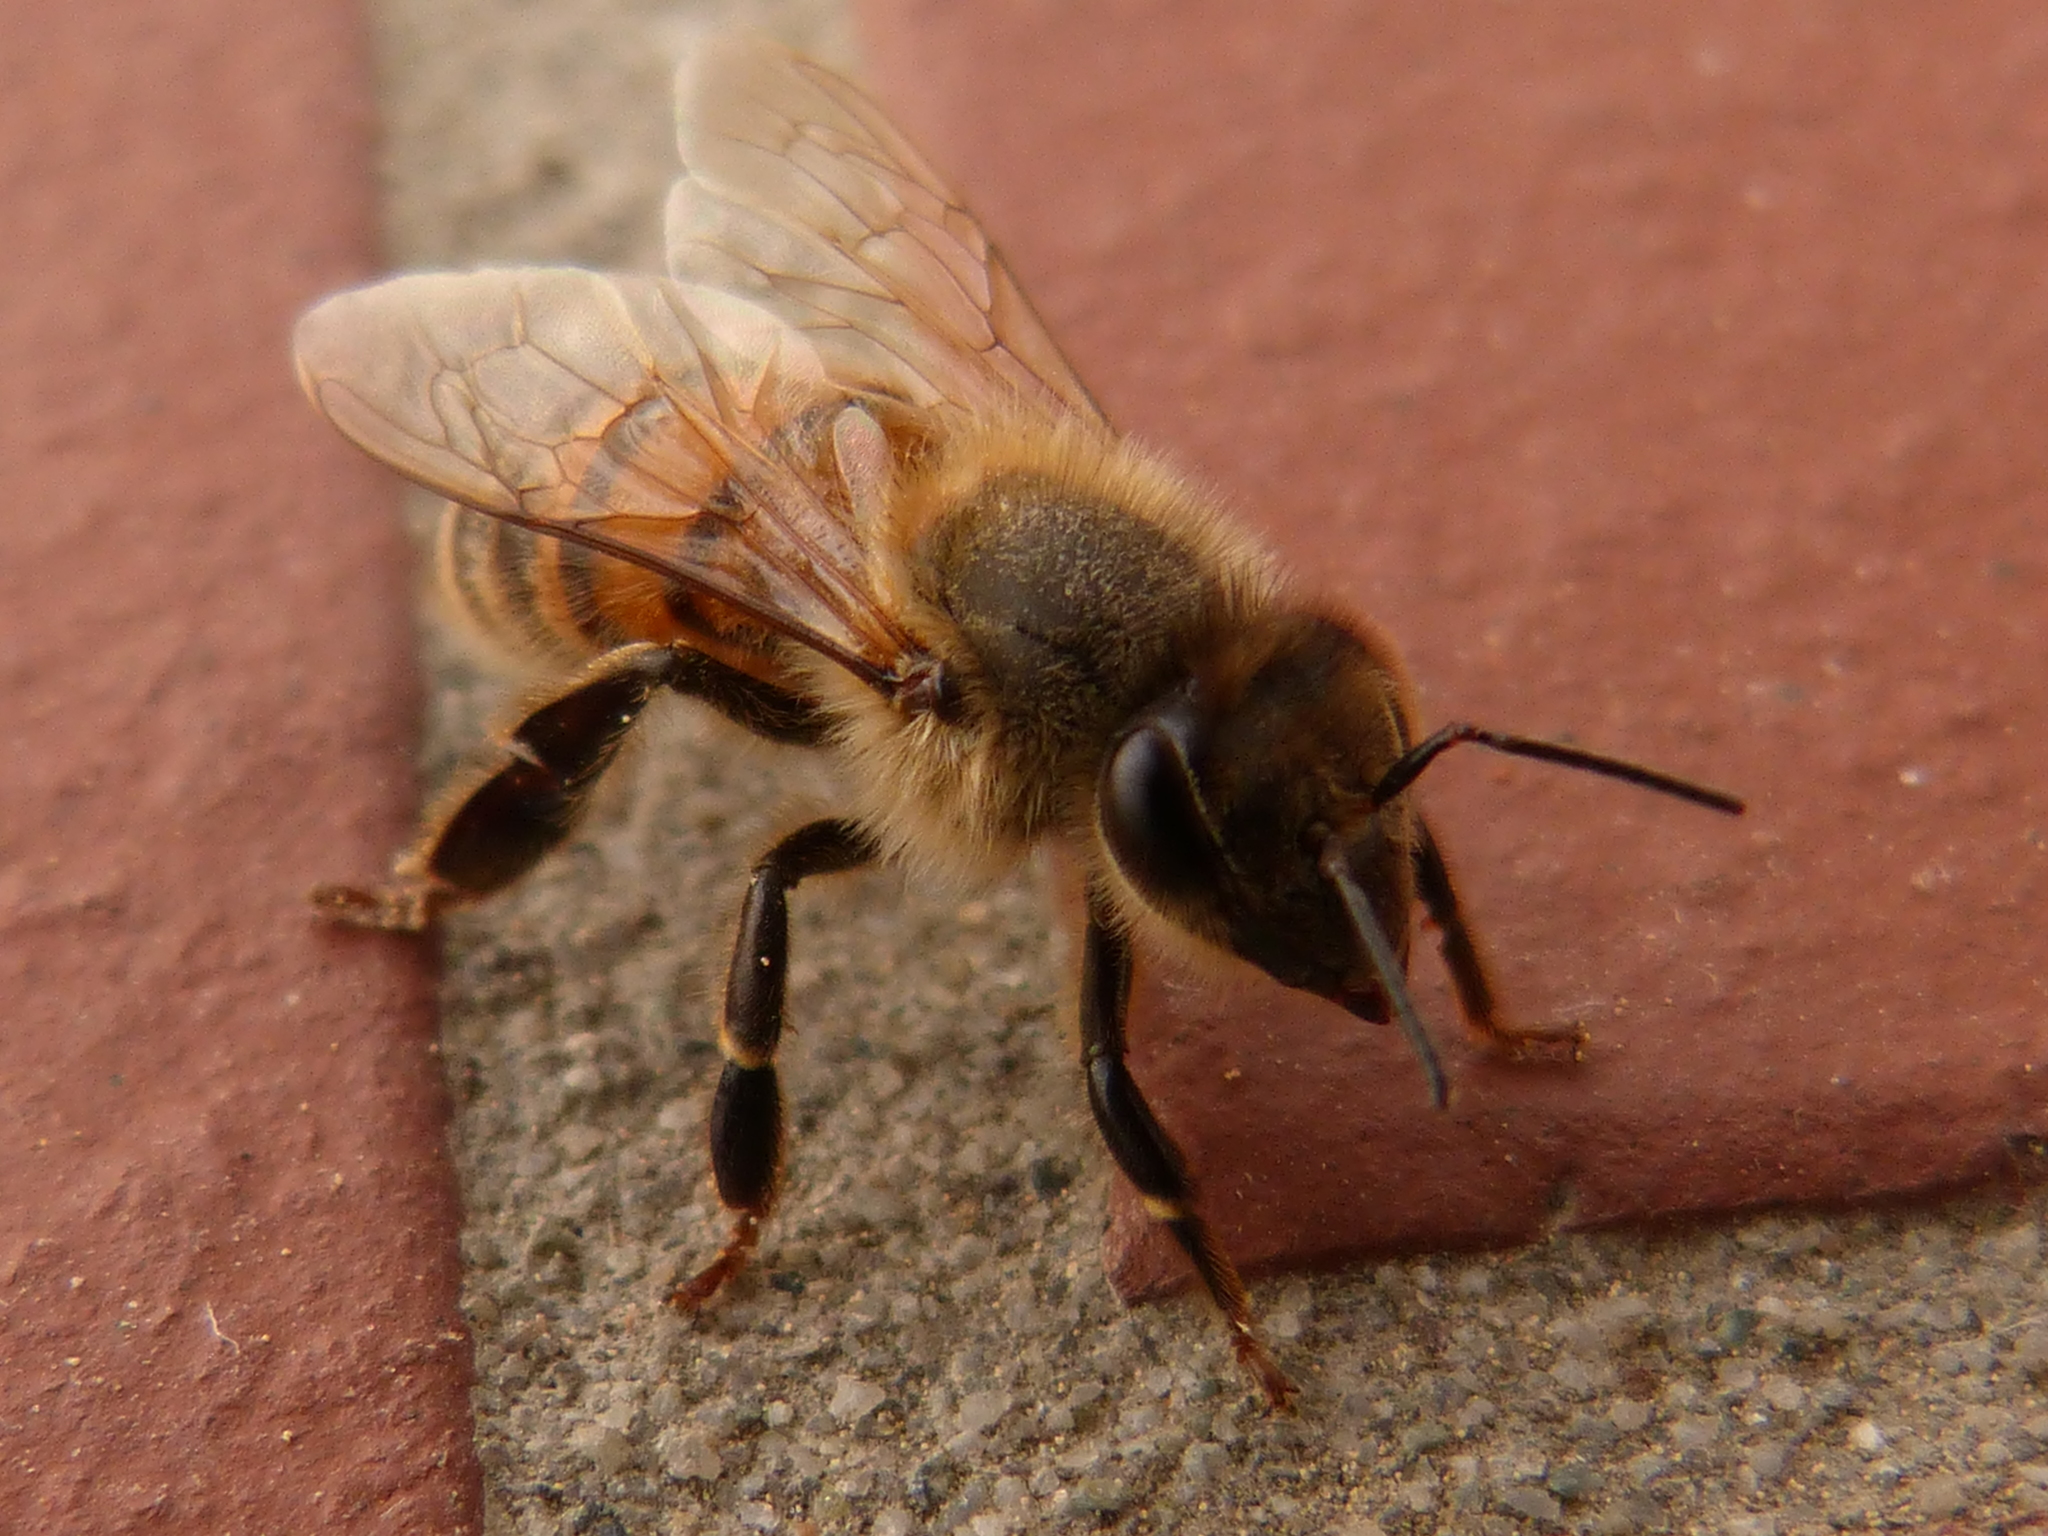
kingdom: Animalia
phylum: Arthropoda
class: Insecta
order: Hymenoptera
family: Apidae
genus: Apis
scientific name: Apis mellifera
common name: Honey bee
